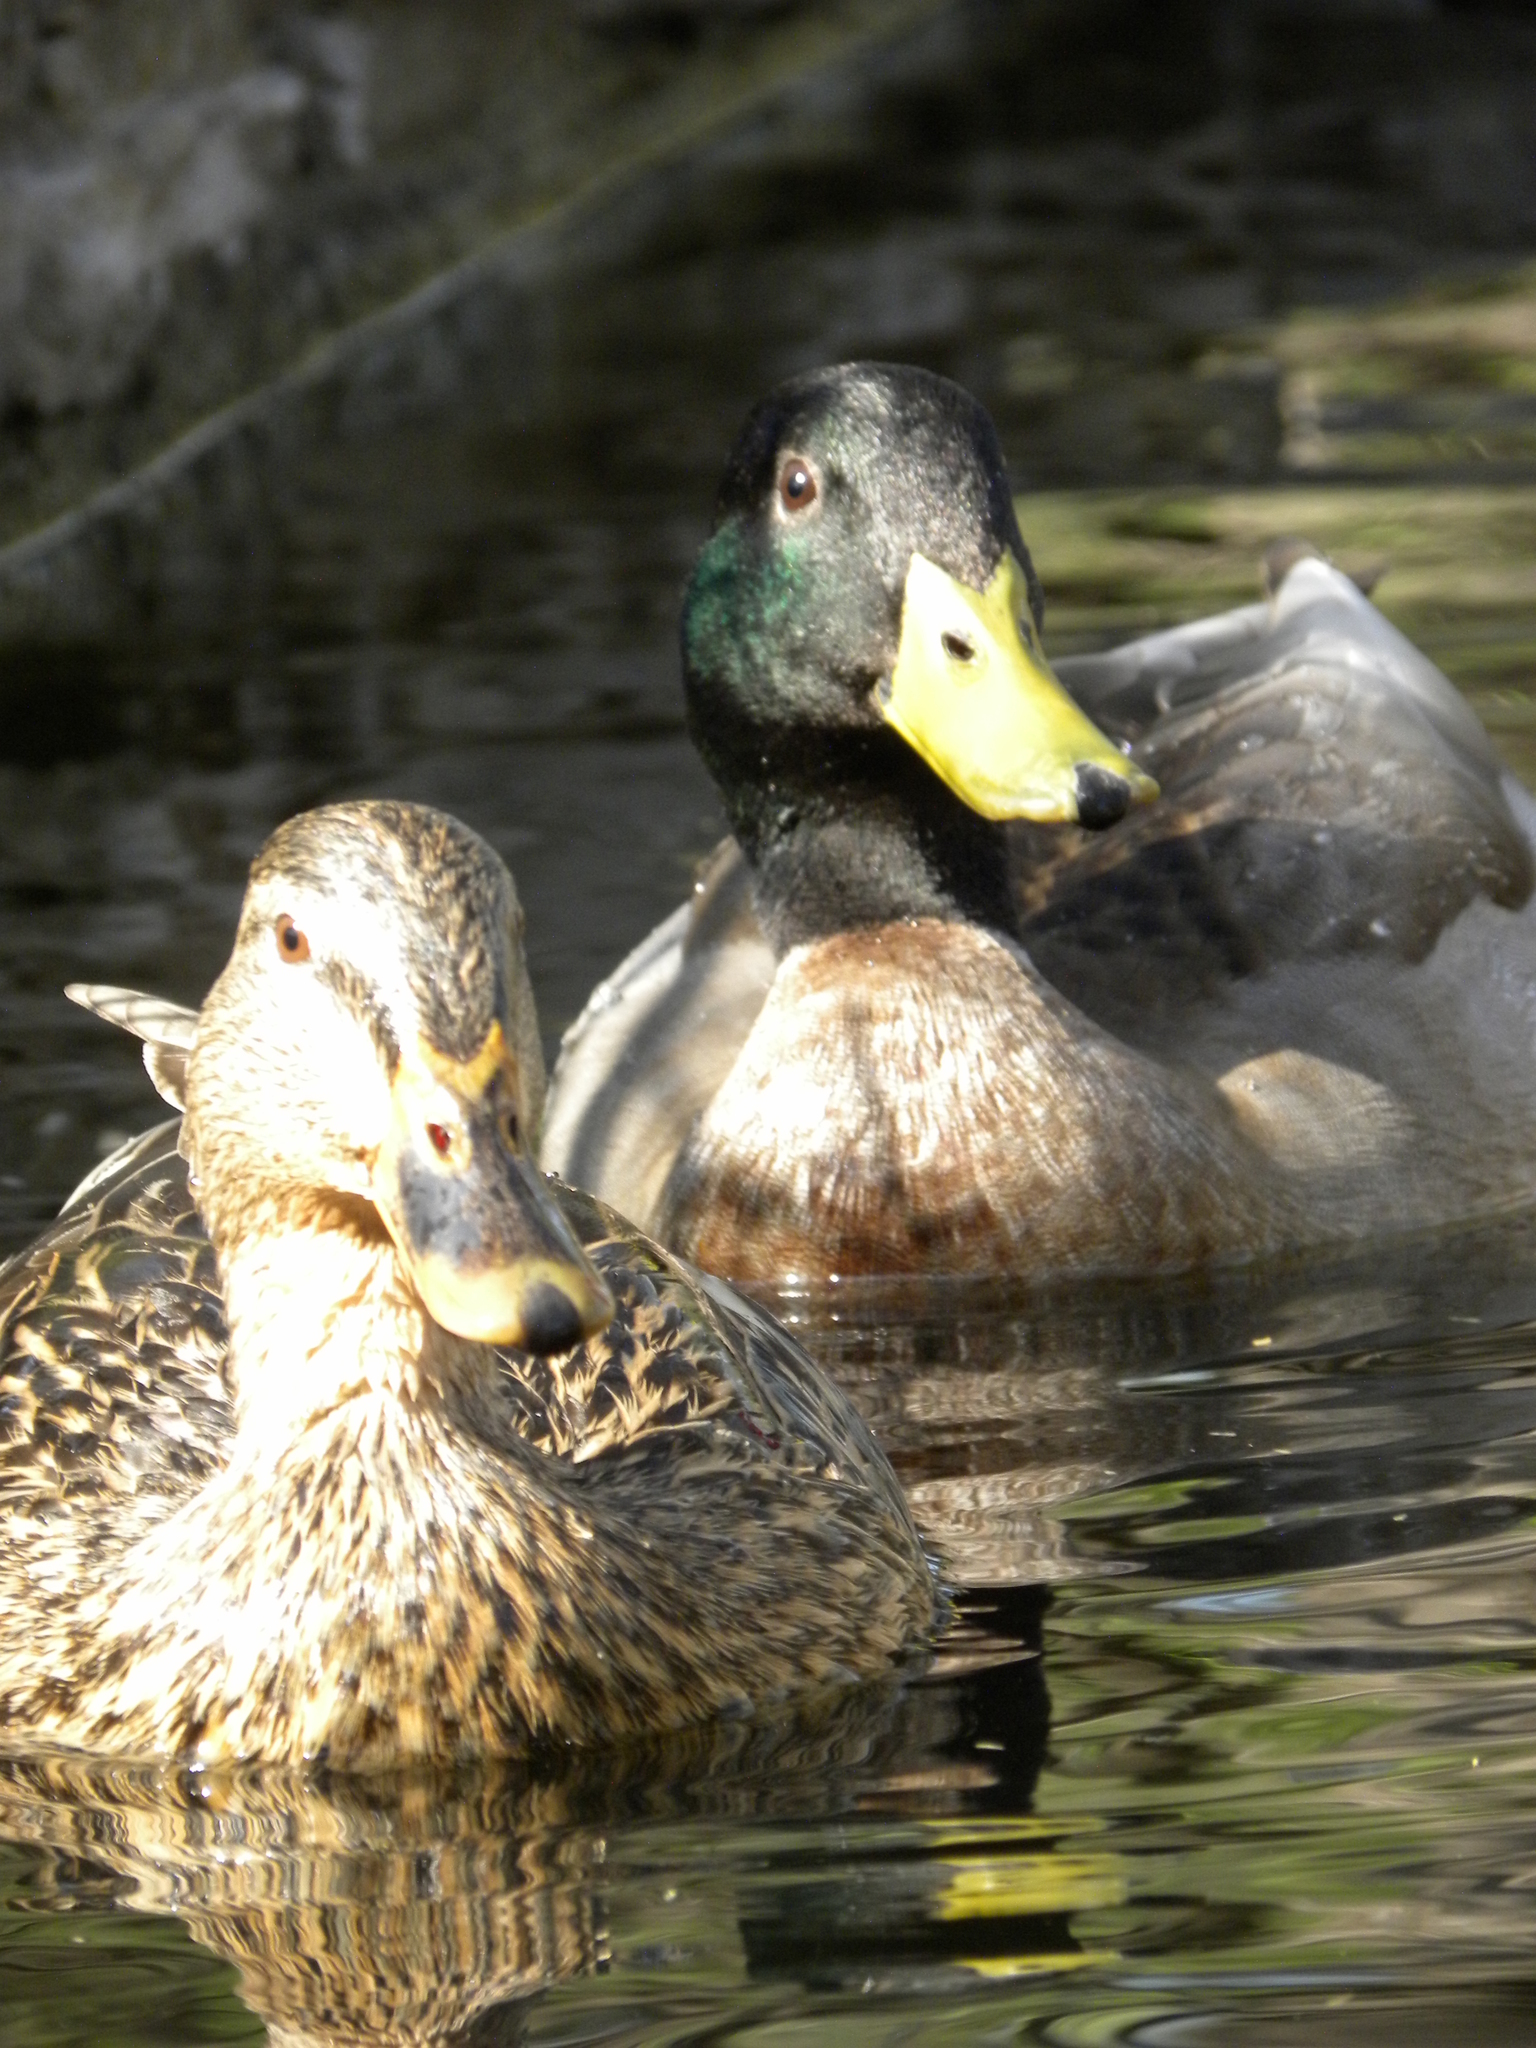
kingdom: Animalia
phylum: Chordata
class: Aves
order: Anseriformes
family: Anatidae
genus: Anas
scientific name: Anas platyrhynchos
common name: Mallard
